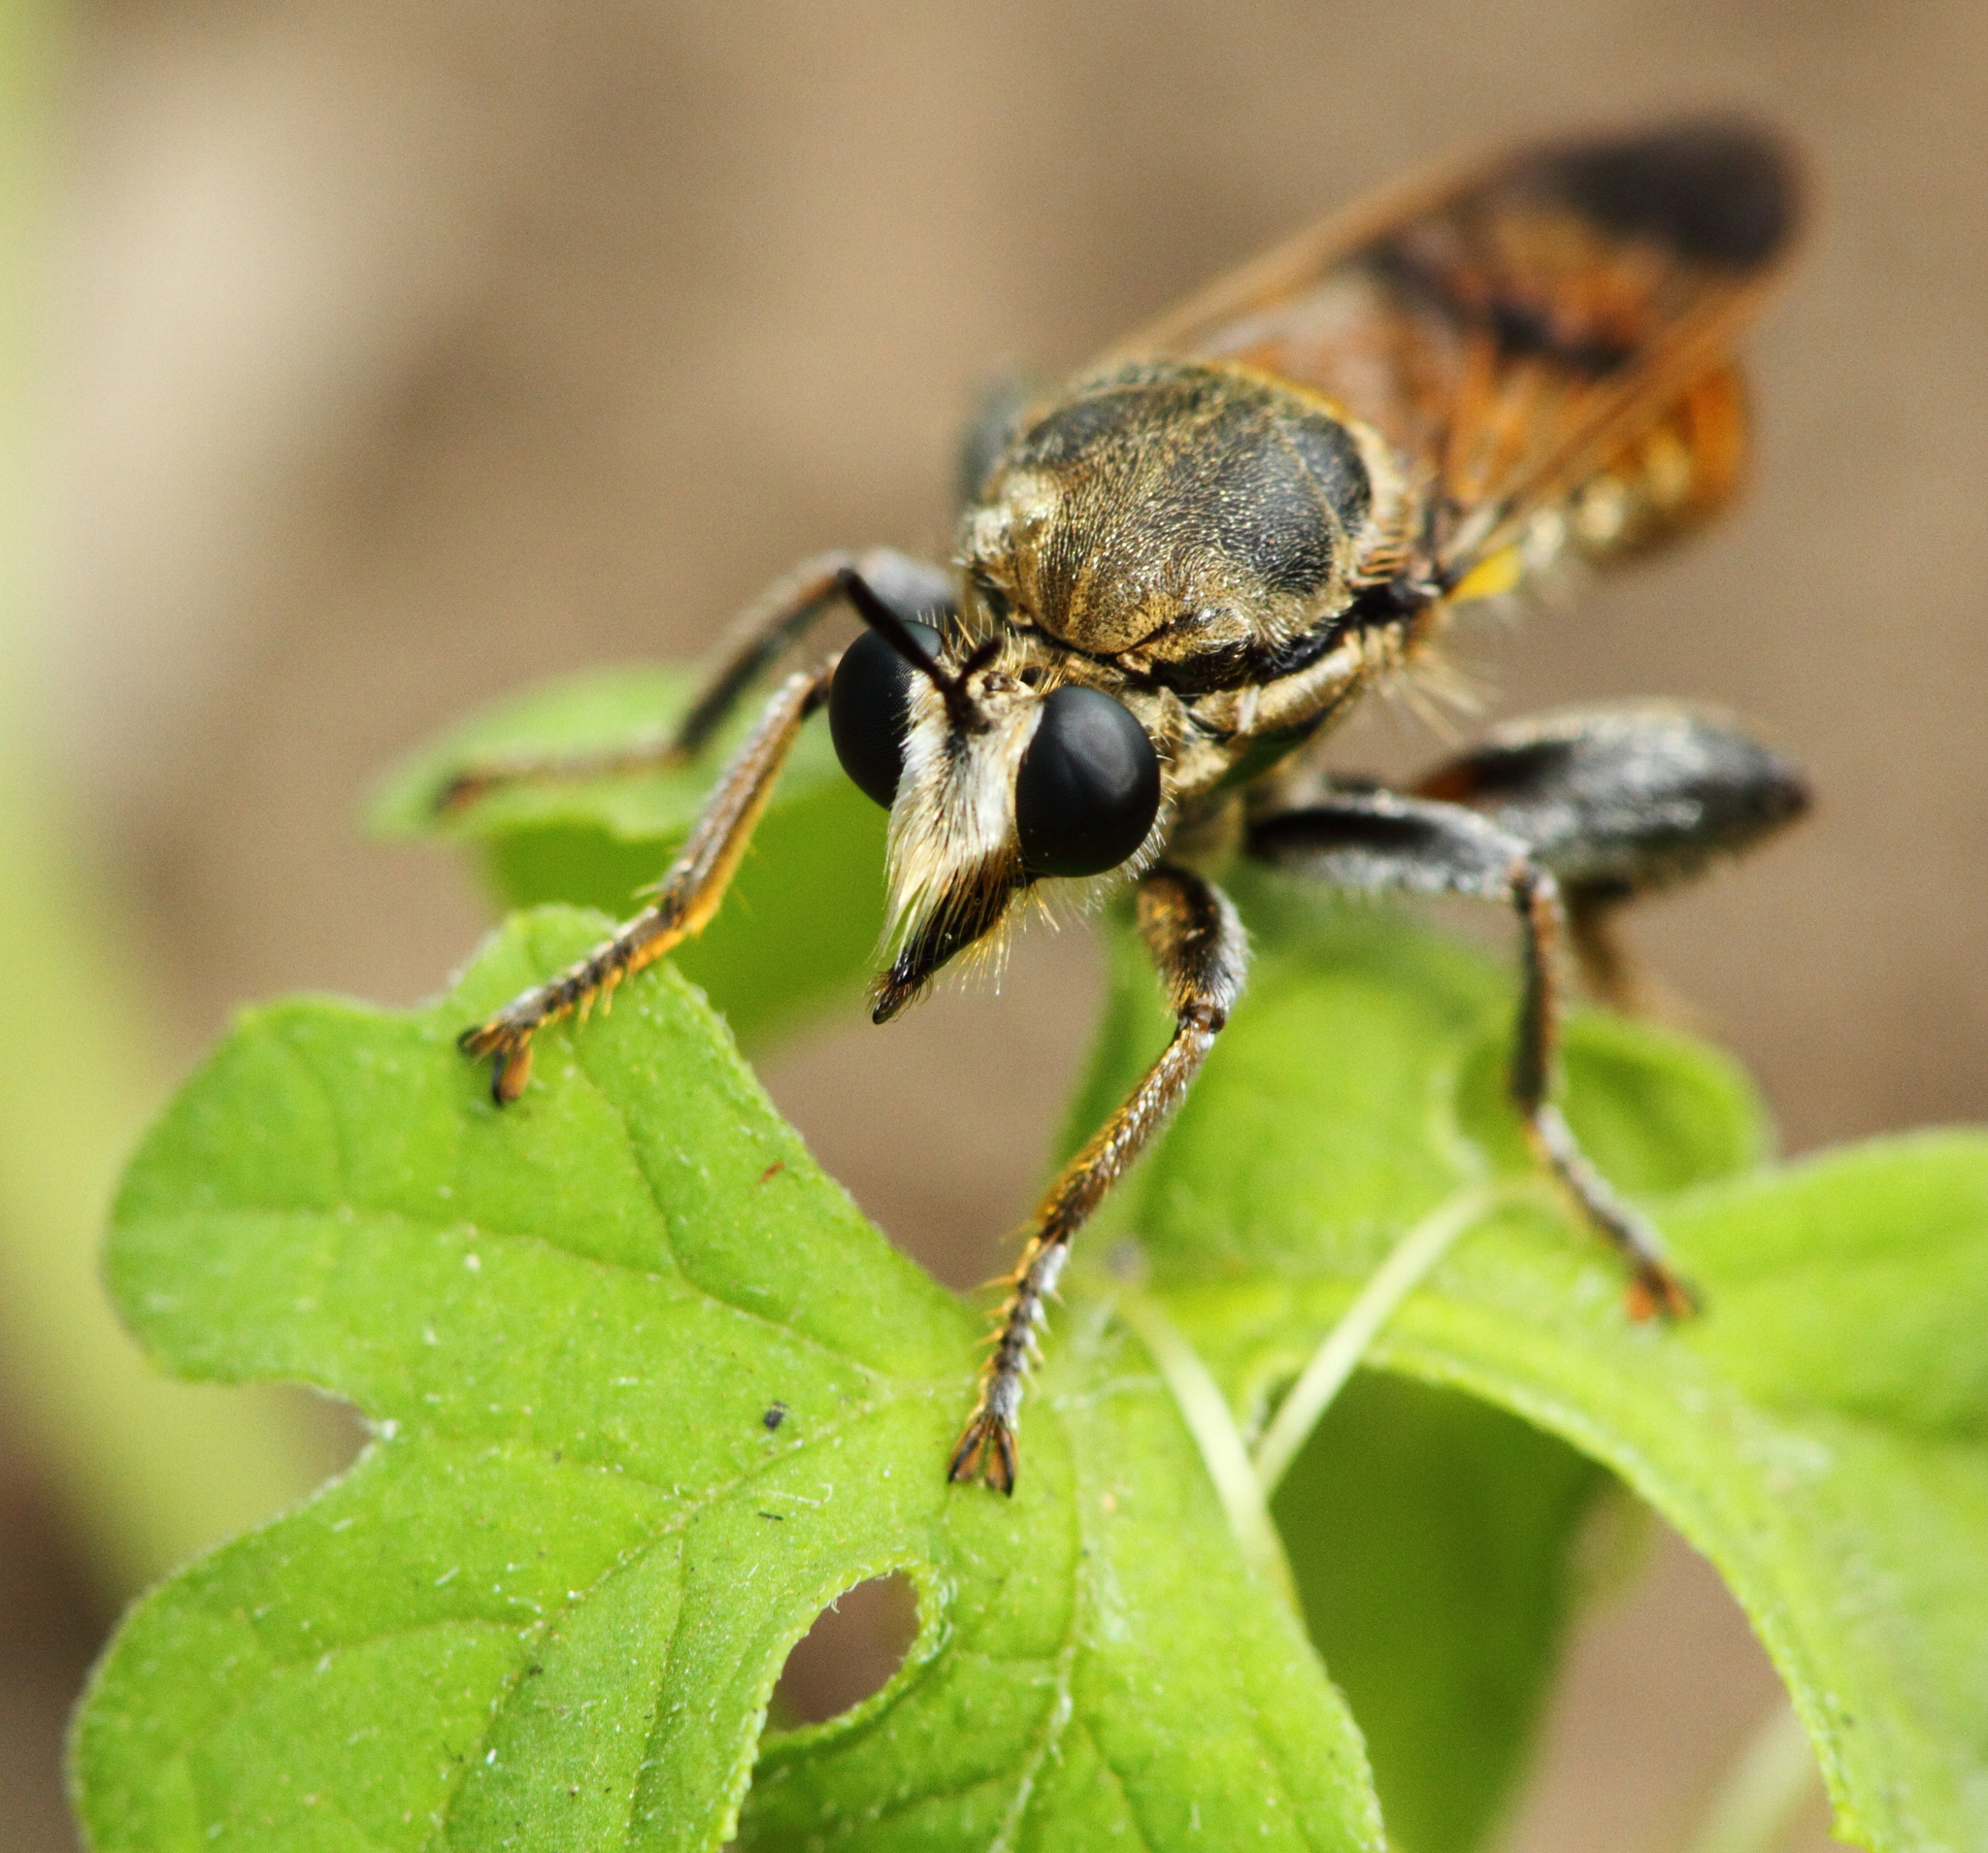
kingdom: Animalia
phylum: Arthropoda
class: Insecta
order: Diptera
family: Asilidae
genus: Hoplistomerus
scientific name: Hoplistomerus nobilis
